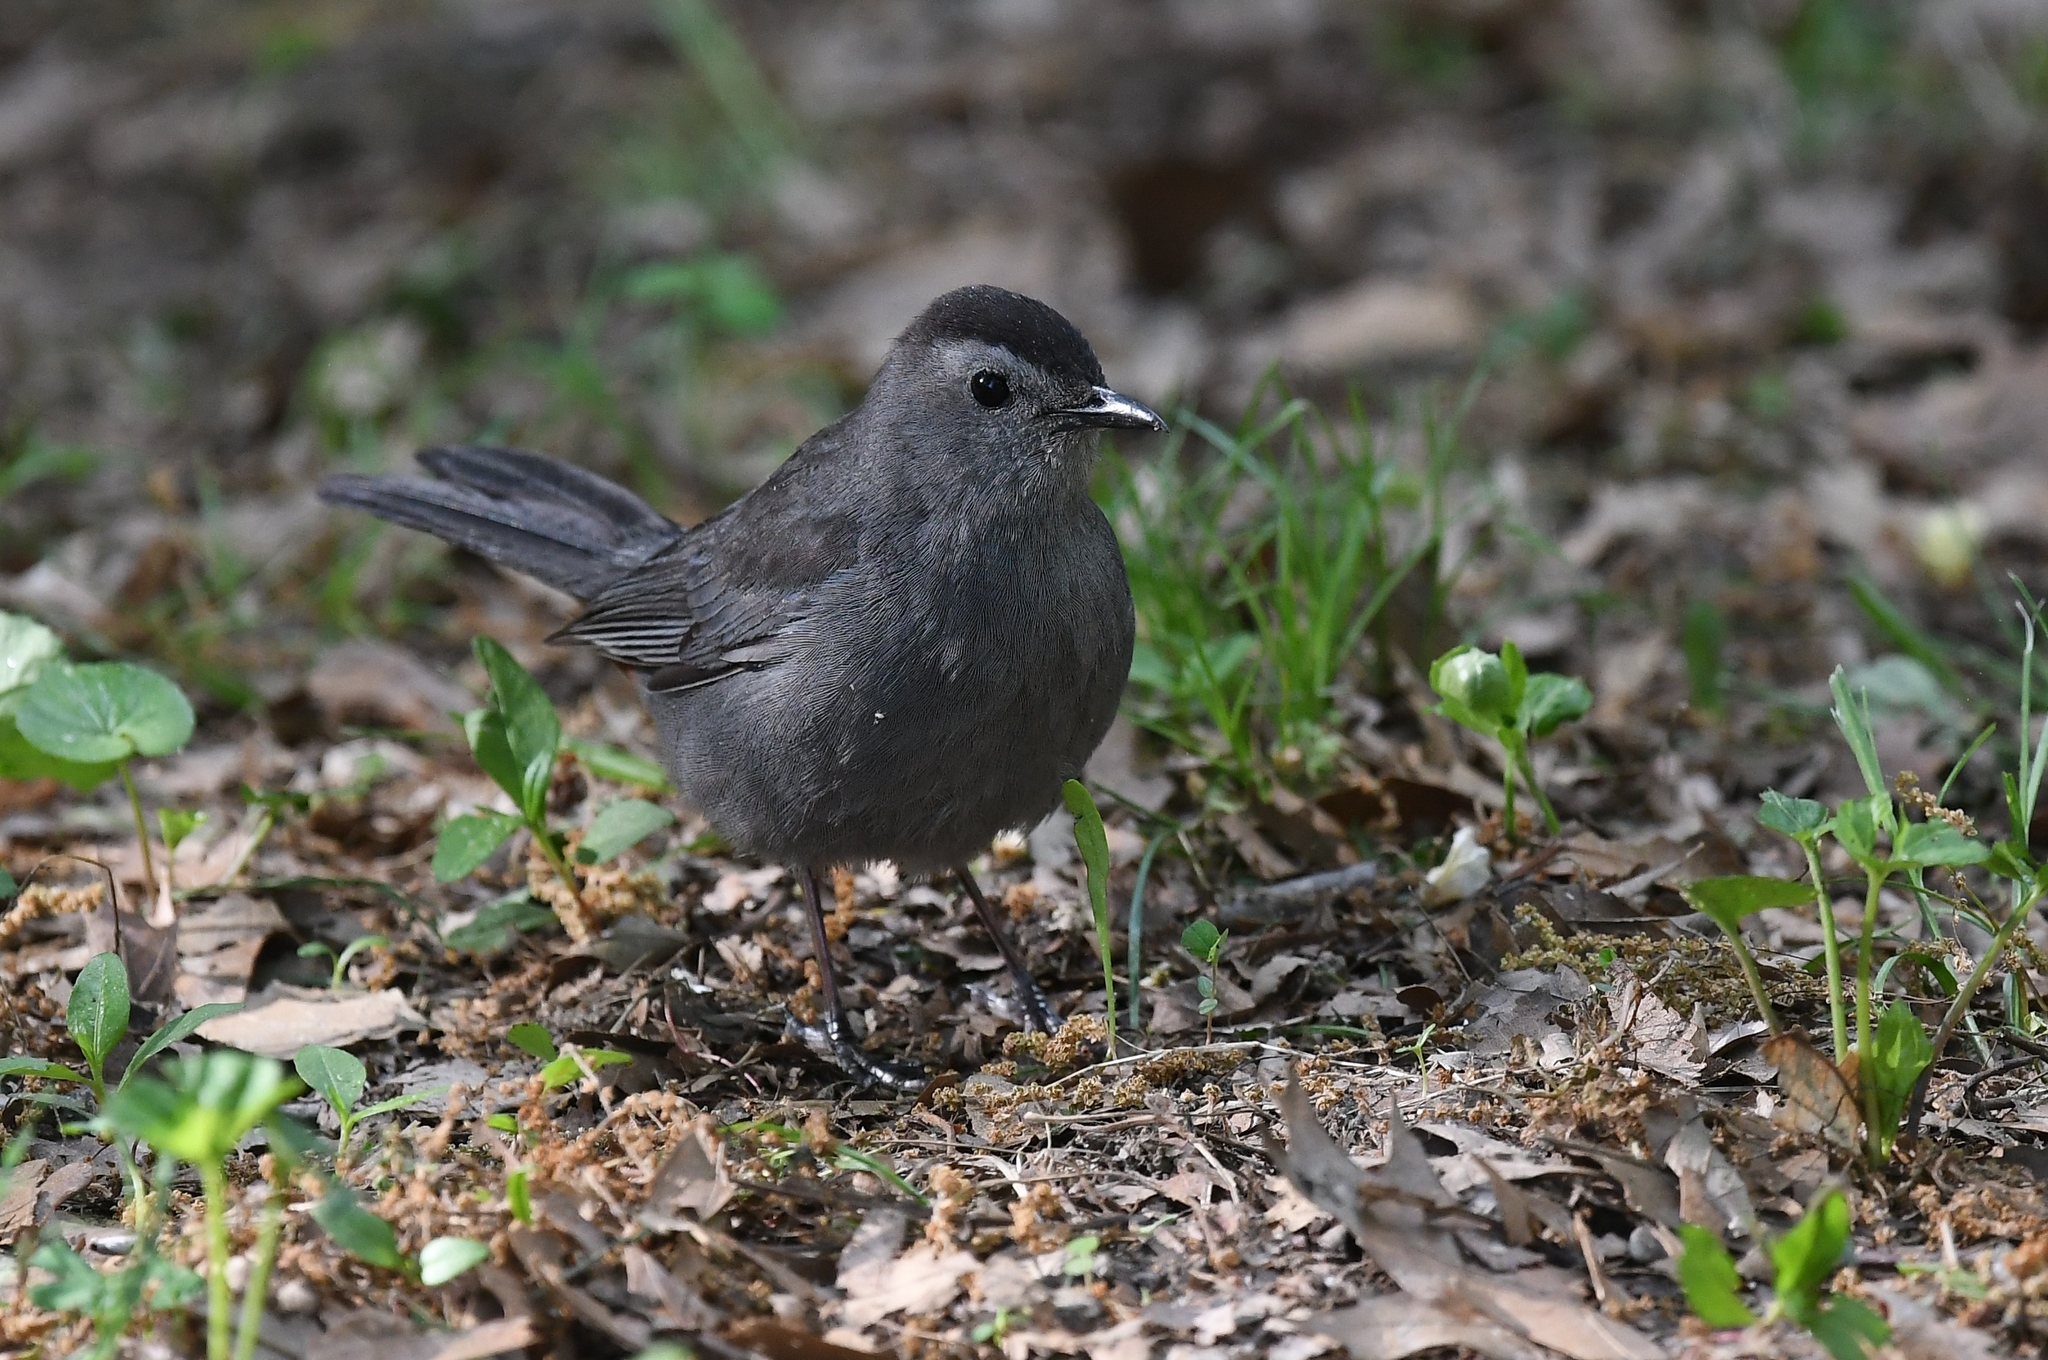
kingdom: Animalia
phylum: Chordata
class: Aves
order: Passeriformes
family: Mimidae
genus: Dumetella
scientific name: Dumetella carolinensis
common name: Gray catbird
